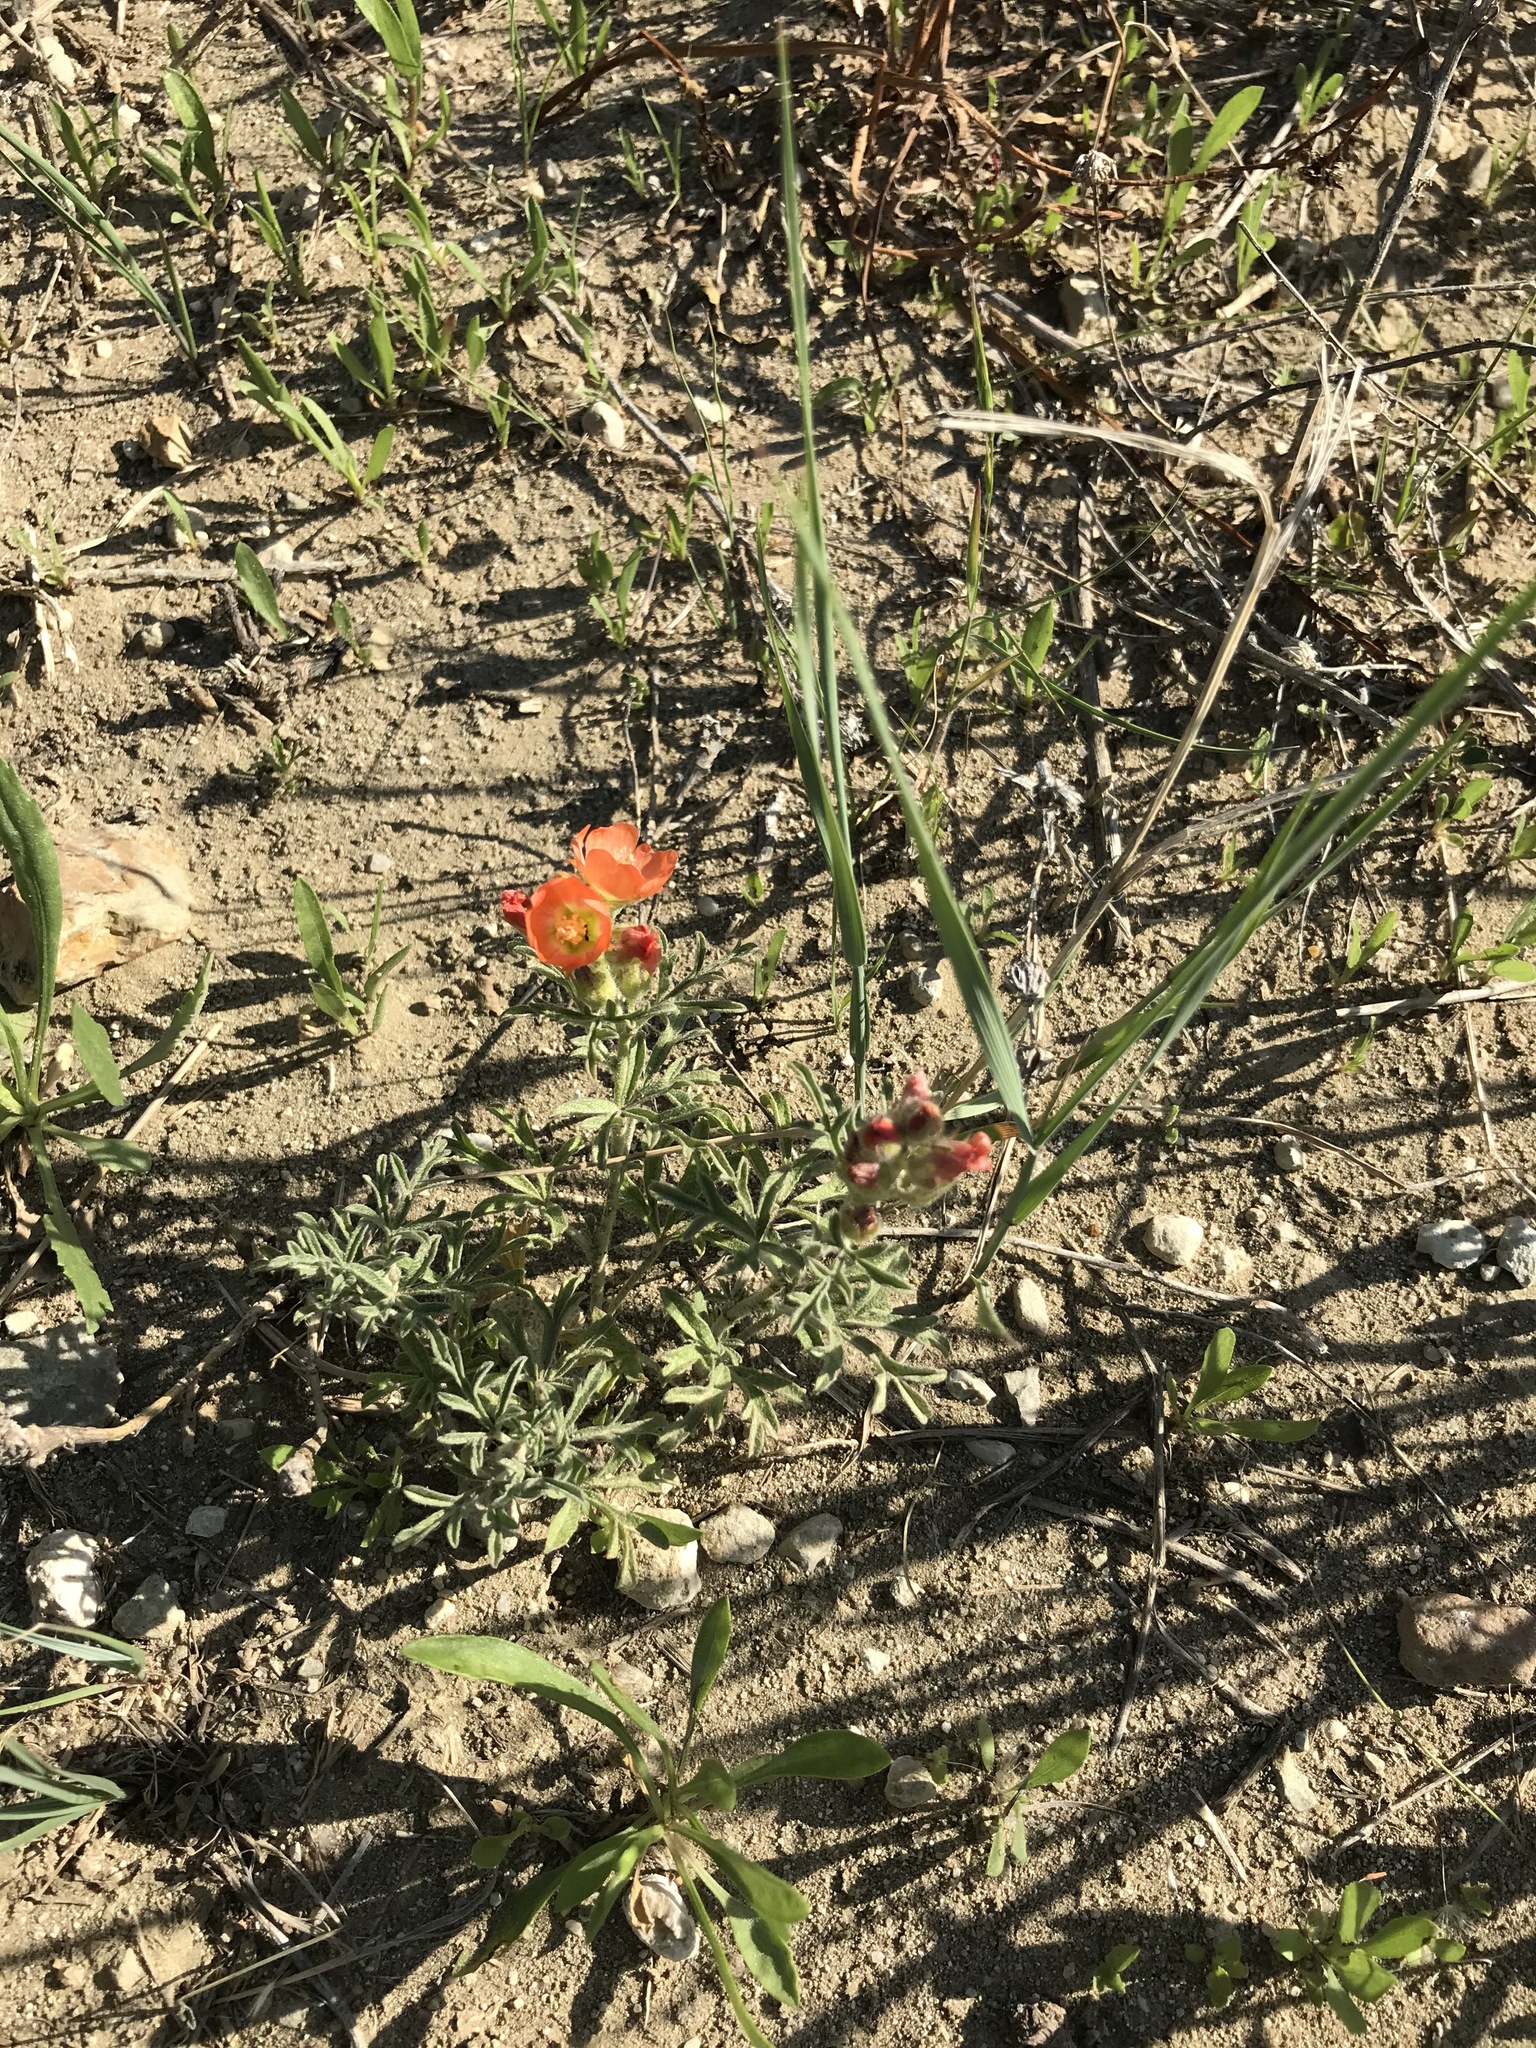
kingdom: Plantae
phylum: Tracheophyta
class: Magnoliopsida
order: Malvales
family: Malvaceae
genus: Sphaeralcea
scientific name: Sphaeralcea coccinea
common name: Moss-rose
